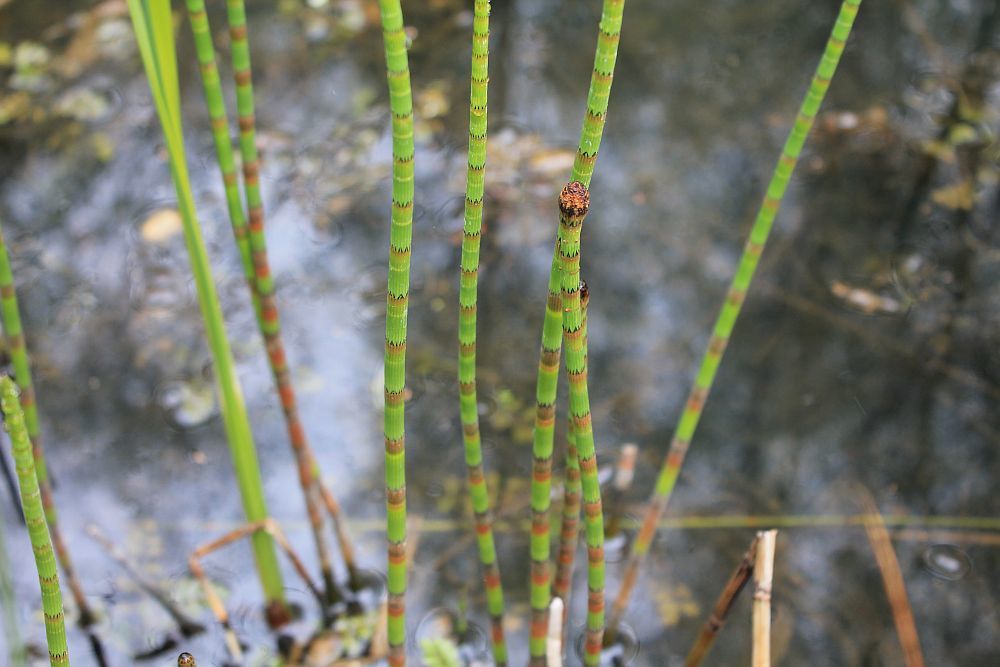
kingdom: Plantae
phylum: Tracheophyta
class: Polypodiopsida
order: Equisetales
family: Equisetaceae
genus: Equisetum
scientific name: Equisetum fluviatile
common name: Water horsetail
